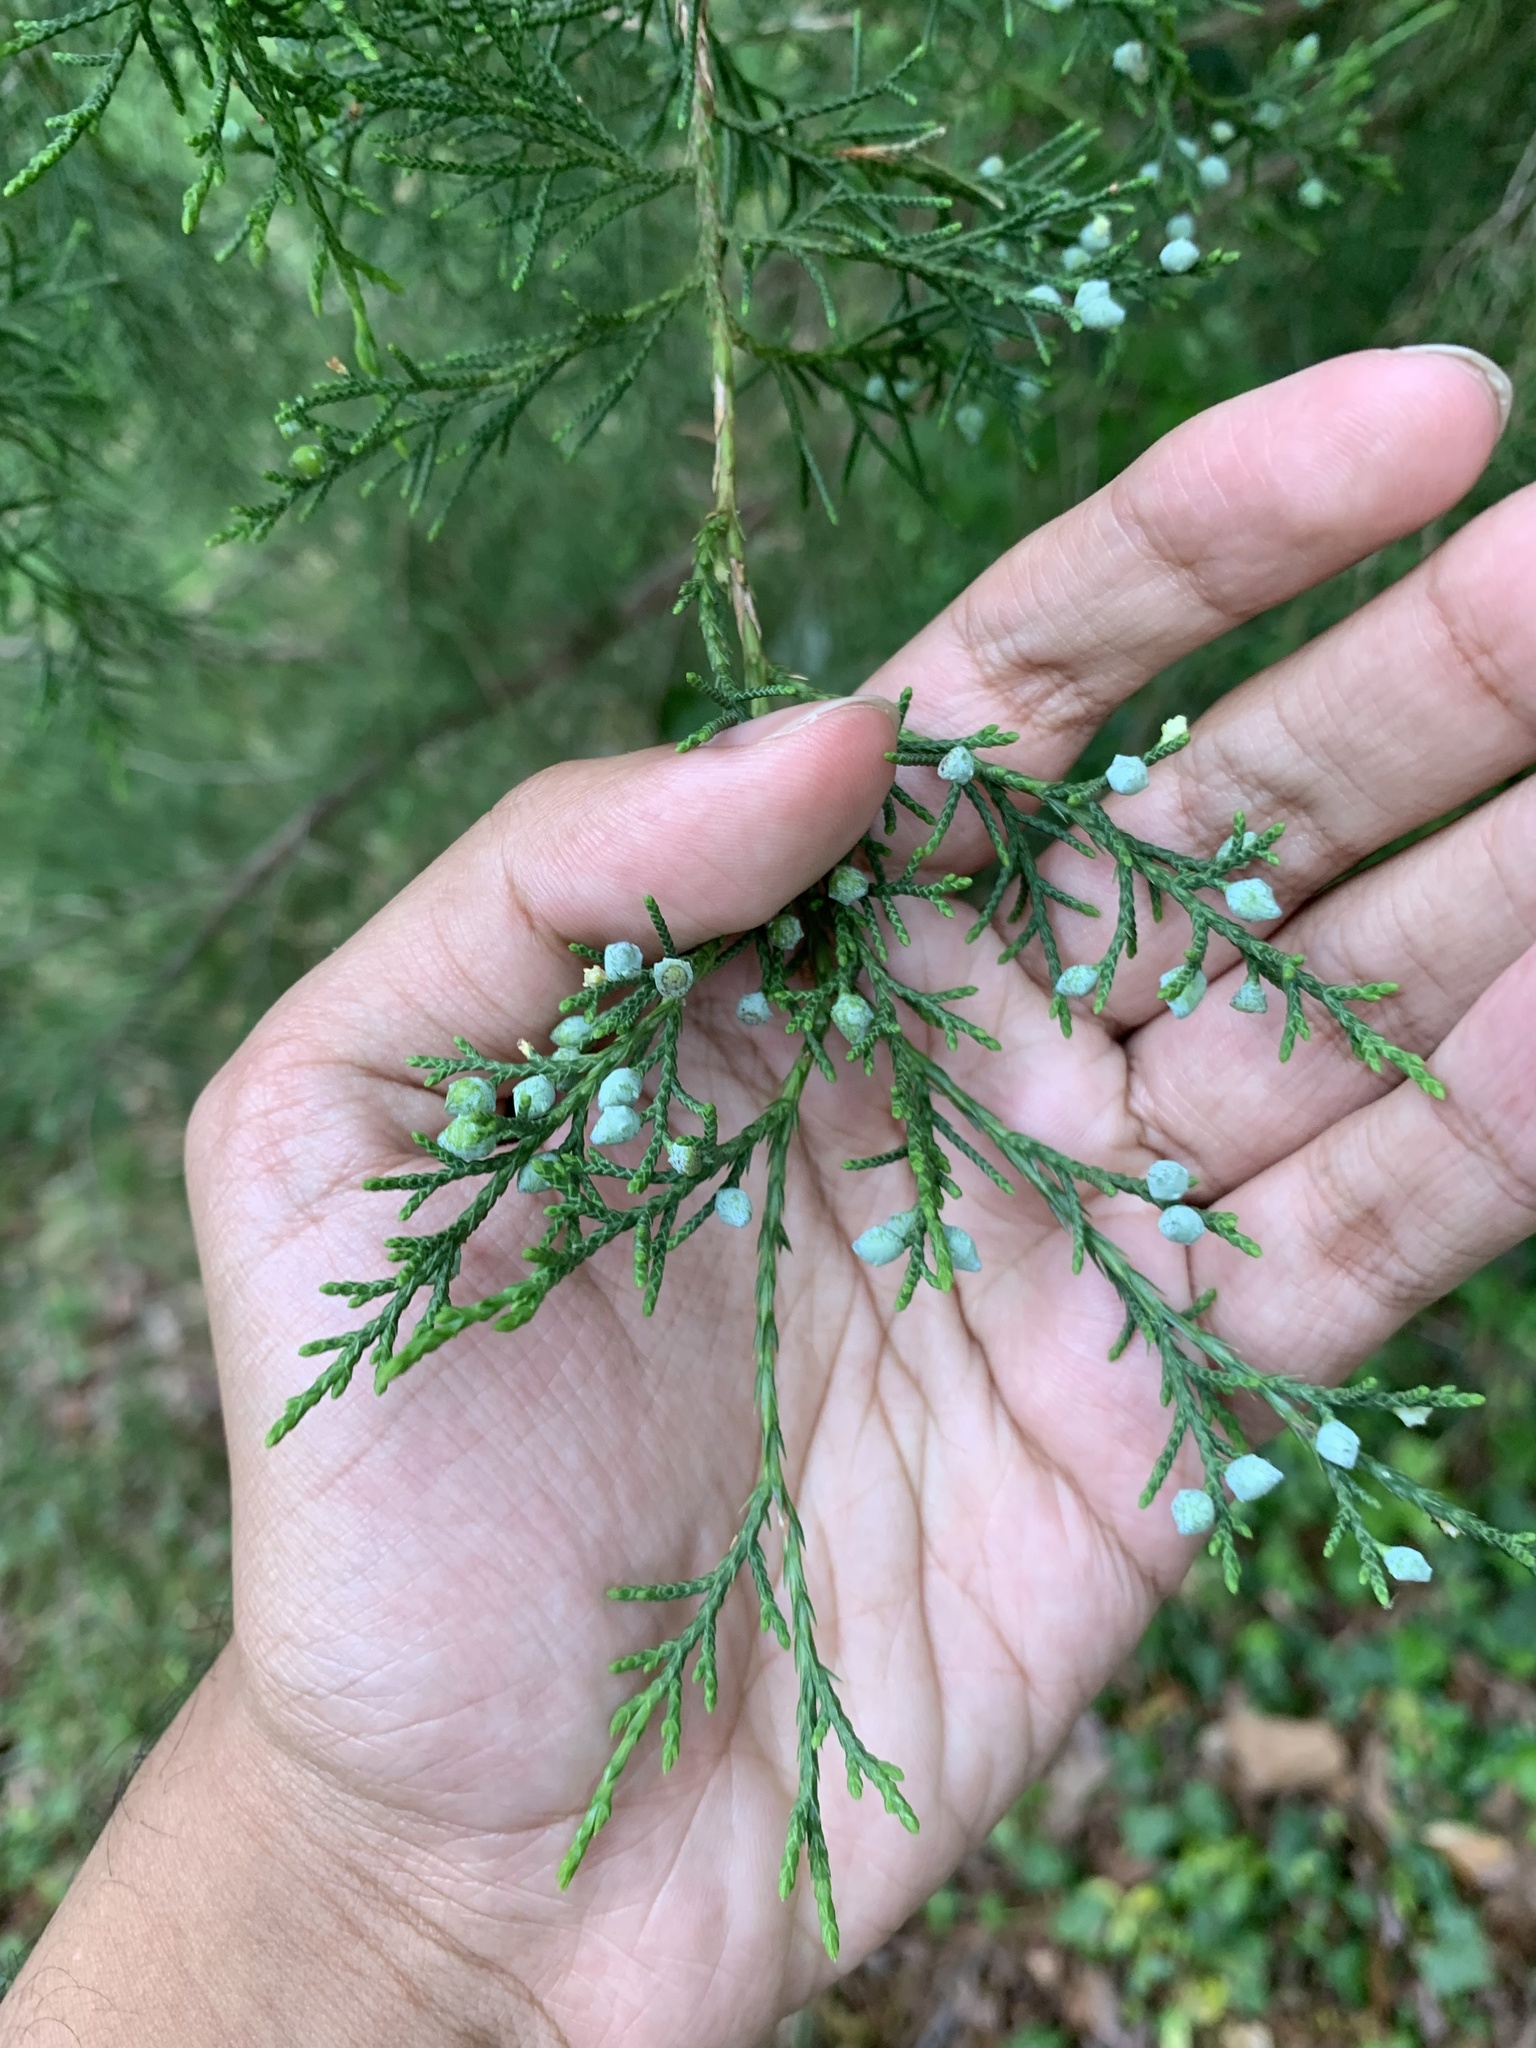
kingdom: Plantae
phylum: Tracheophyta
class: Pinopsida
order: Pinales
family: Cupressaceae
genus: Juniperus
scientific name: Juniperus virginiana
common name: Red juniper
